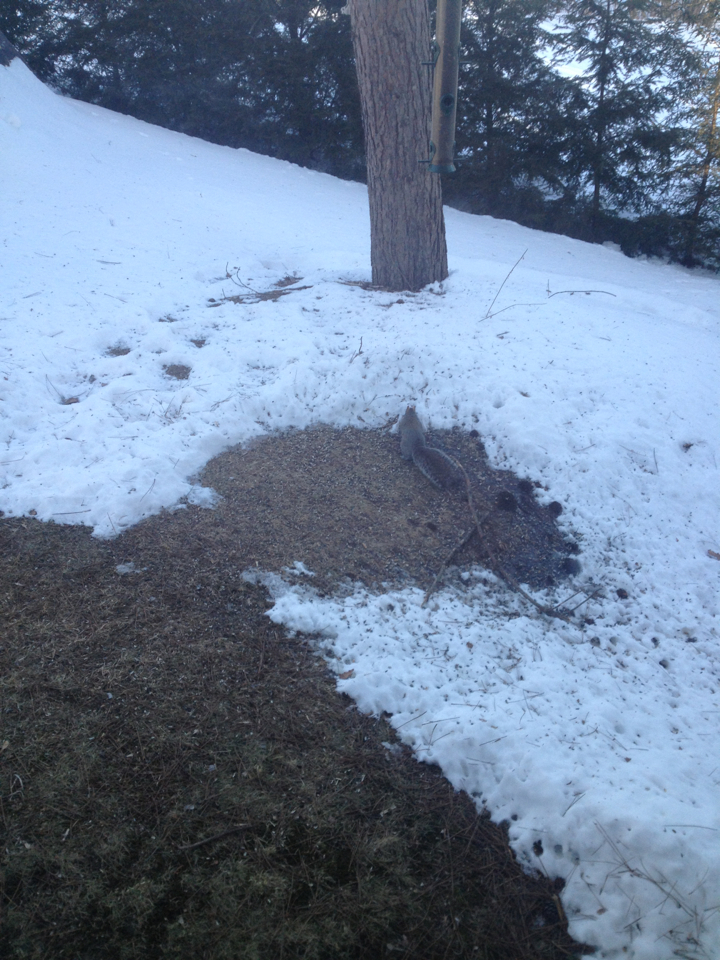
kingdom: Animalia
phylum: Chordata
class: Mammalia
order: Rodentia
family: Sciuridae
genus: Sciurus
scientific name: Sciurus carolinensis
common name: Eastern gray squirrel
